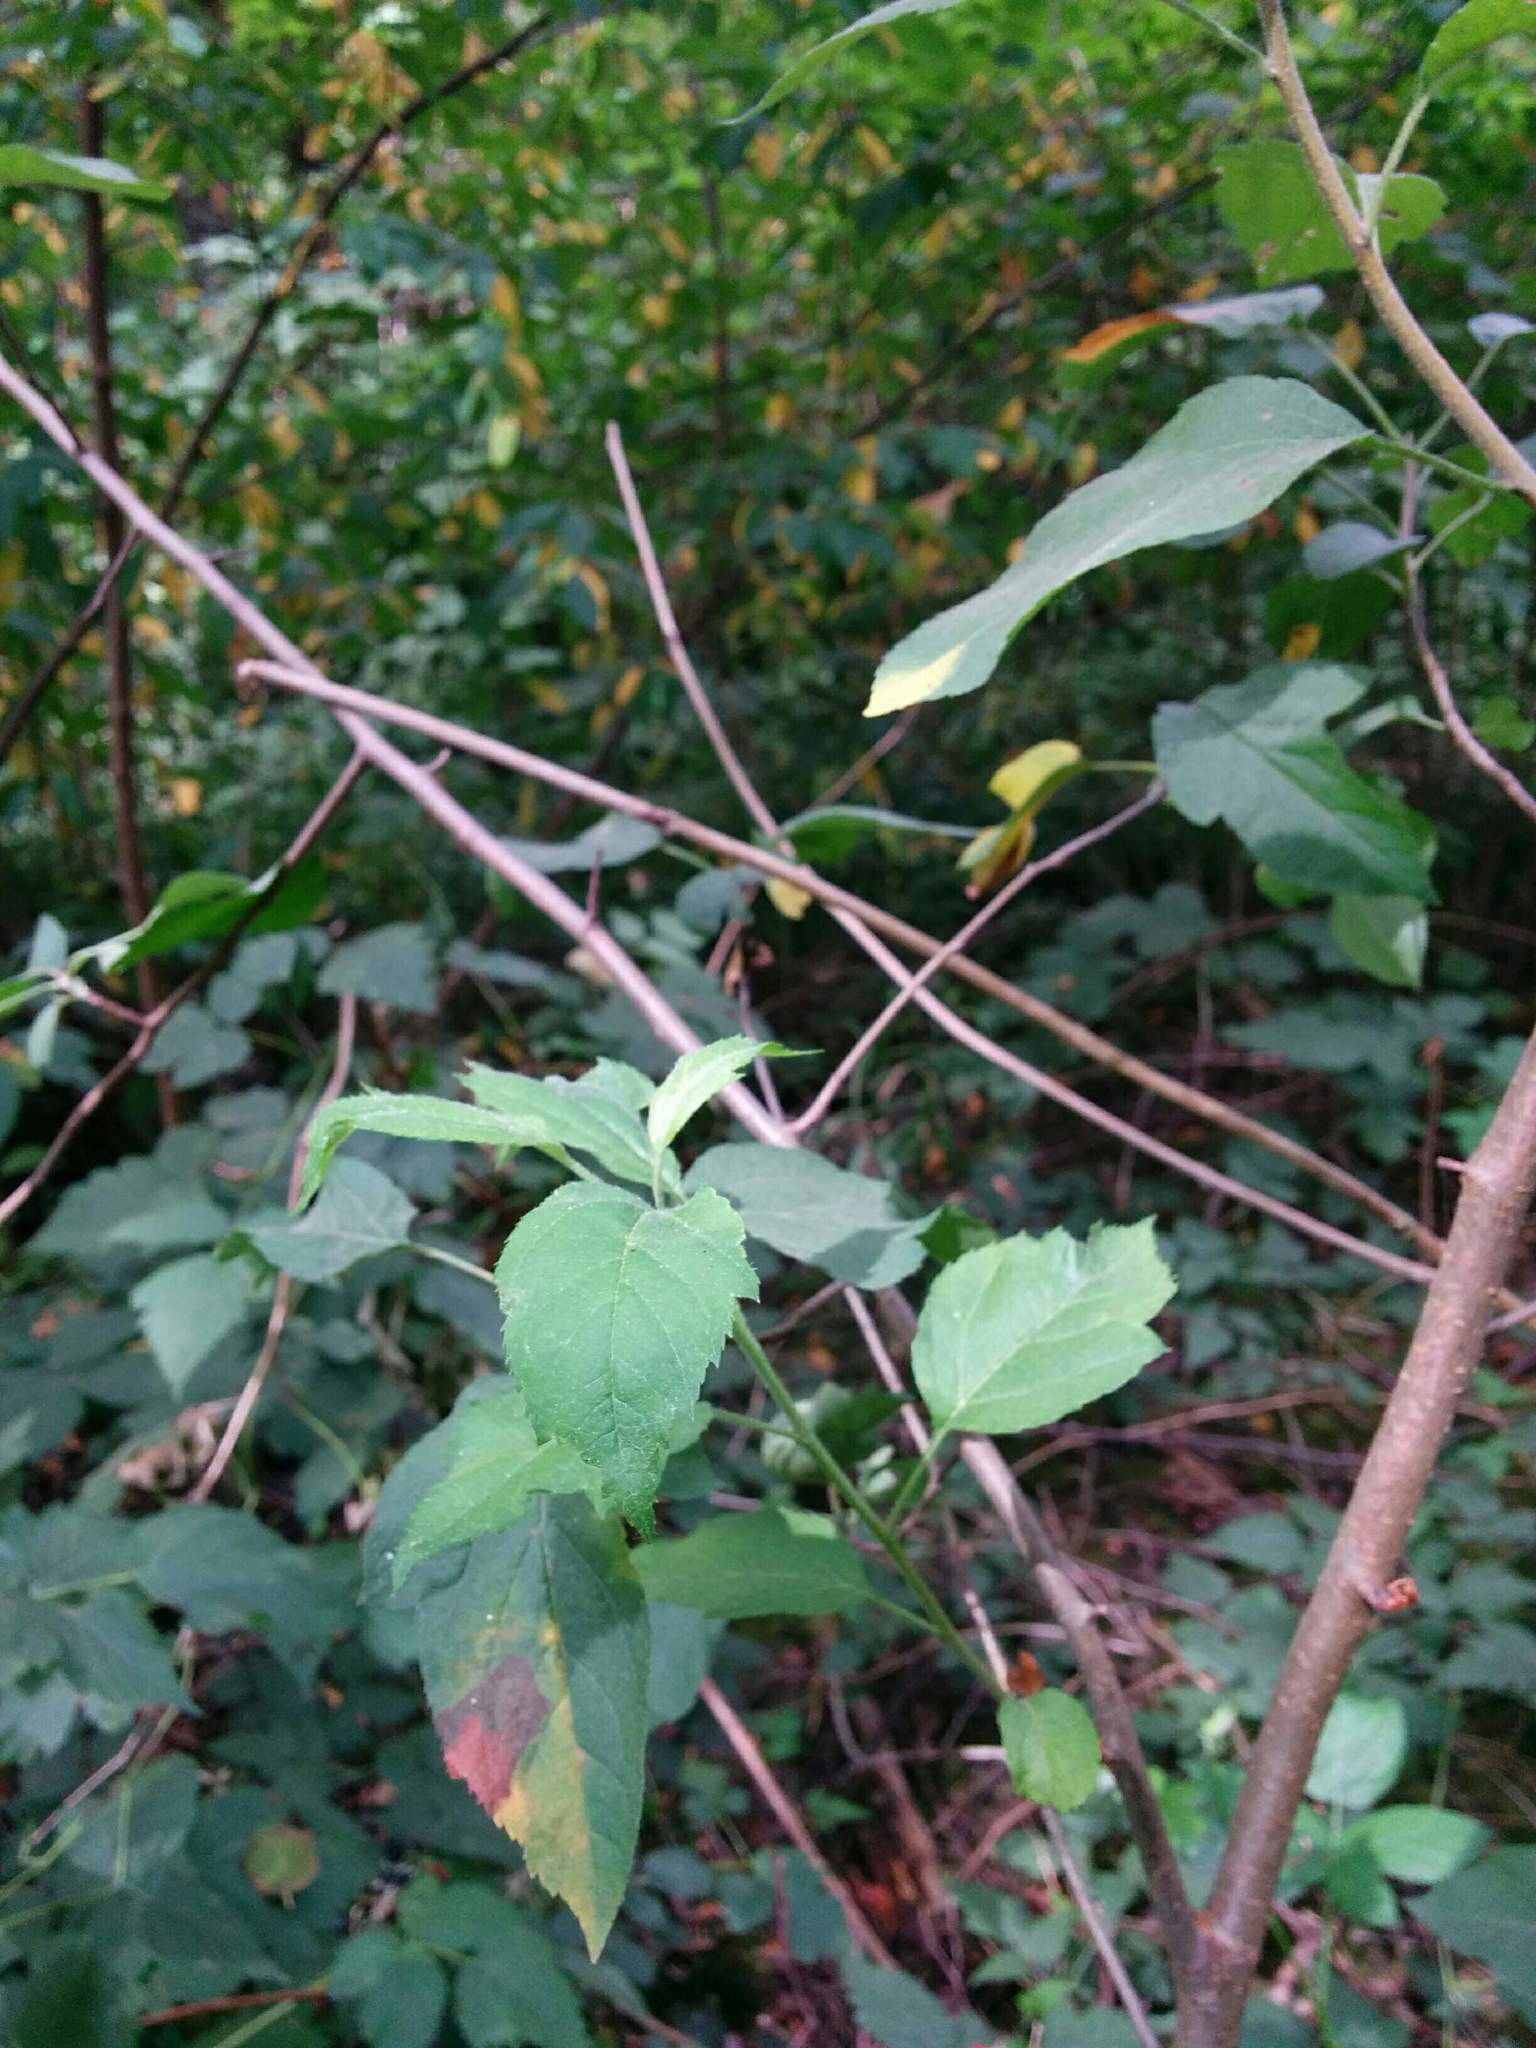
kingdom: Plantae
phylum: Tracheophyta
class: Magnoliopsida
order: Rosales
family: Rosaceae
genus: Malus
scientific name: Malus fusca
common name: Oregon crab apple
